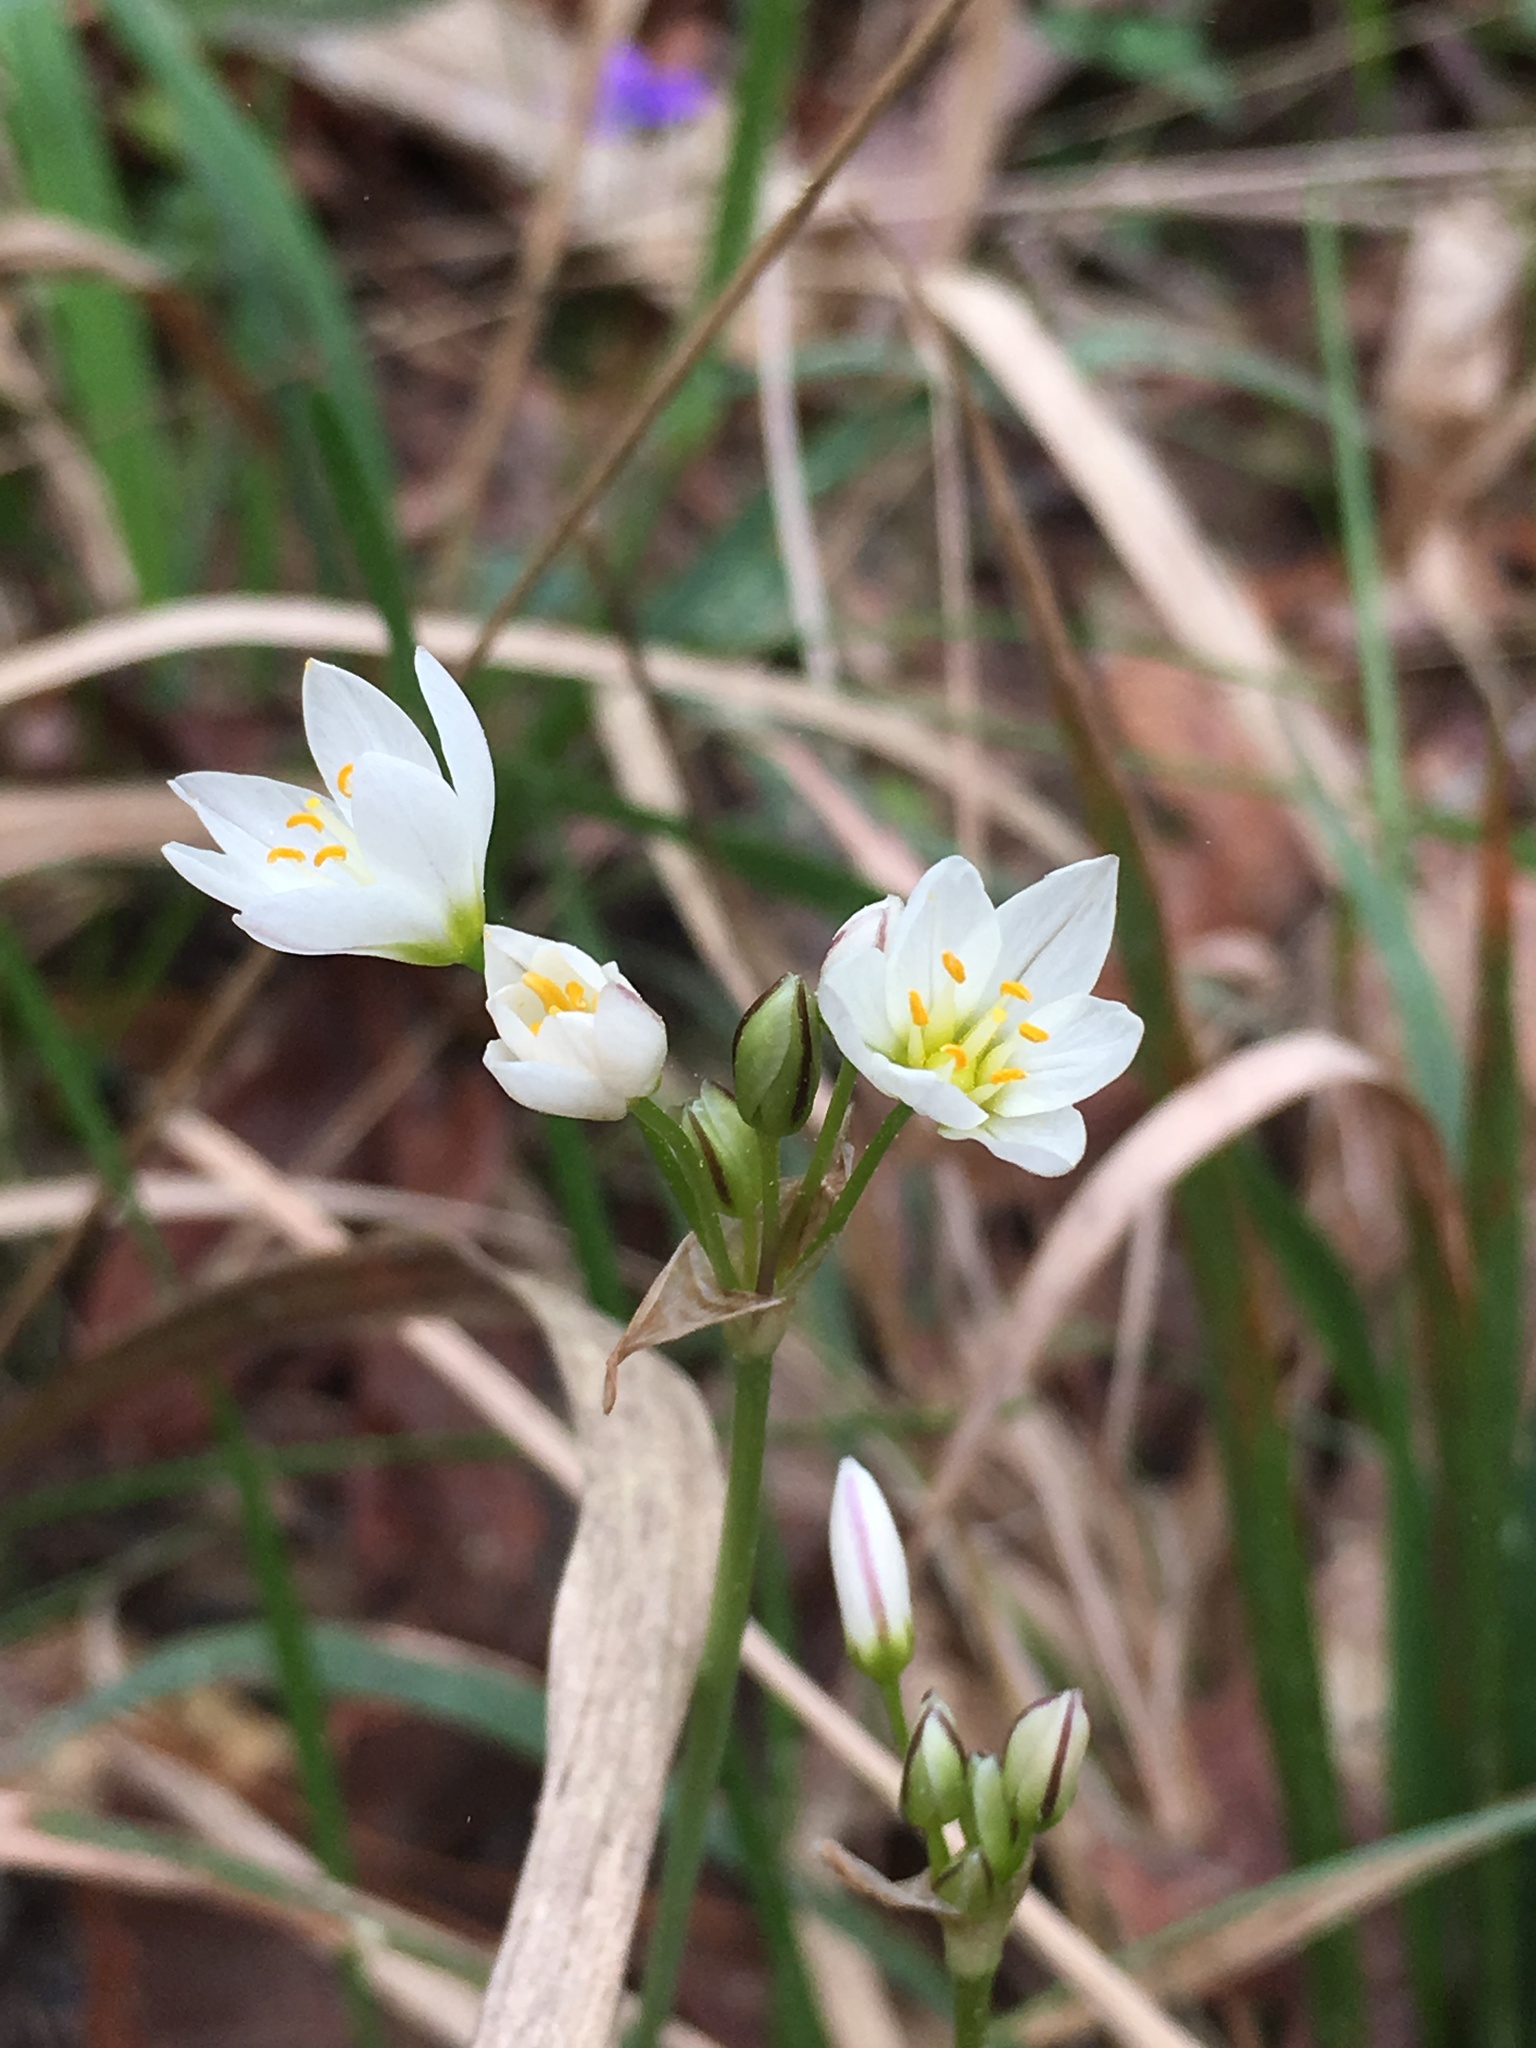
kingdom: Plantae
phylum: Tracheophyta
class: Liliopsida
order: Asparagales
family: Amaryllidaceae
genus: Nothoscordum
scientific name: Nothoscordum bivalve
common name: Crow-poison
